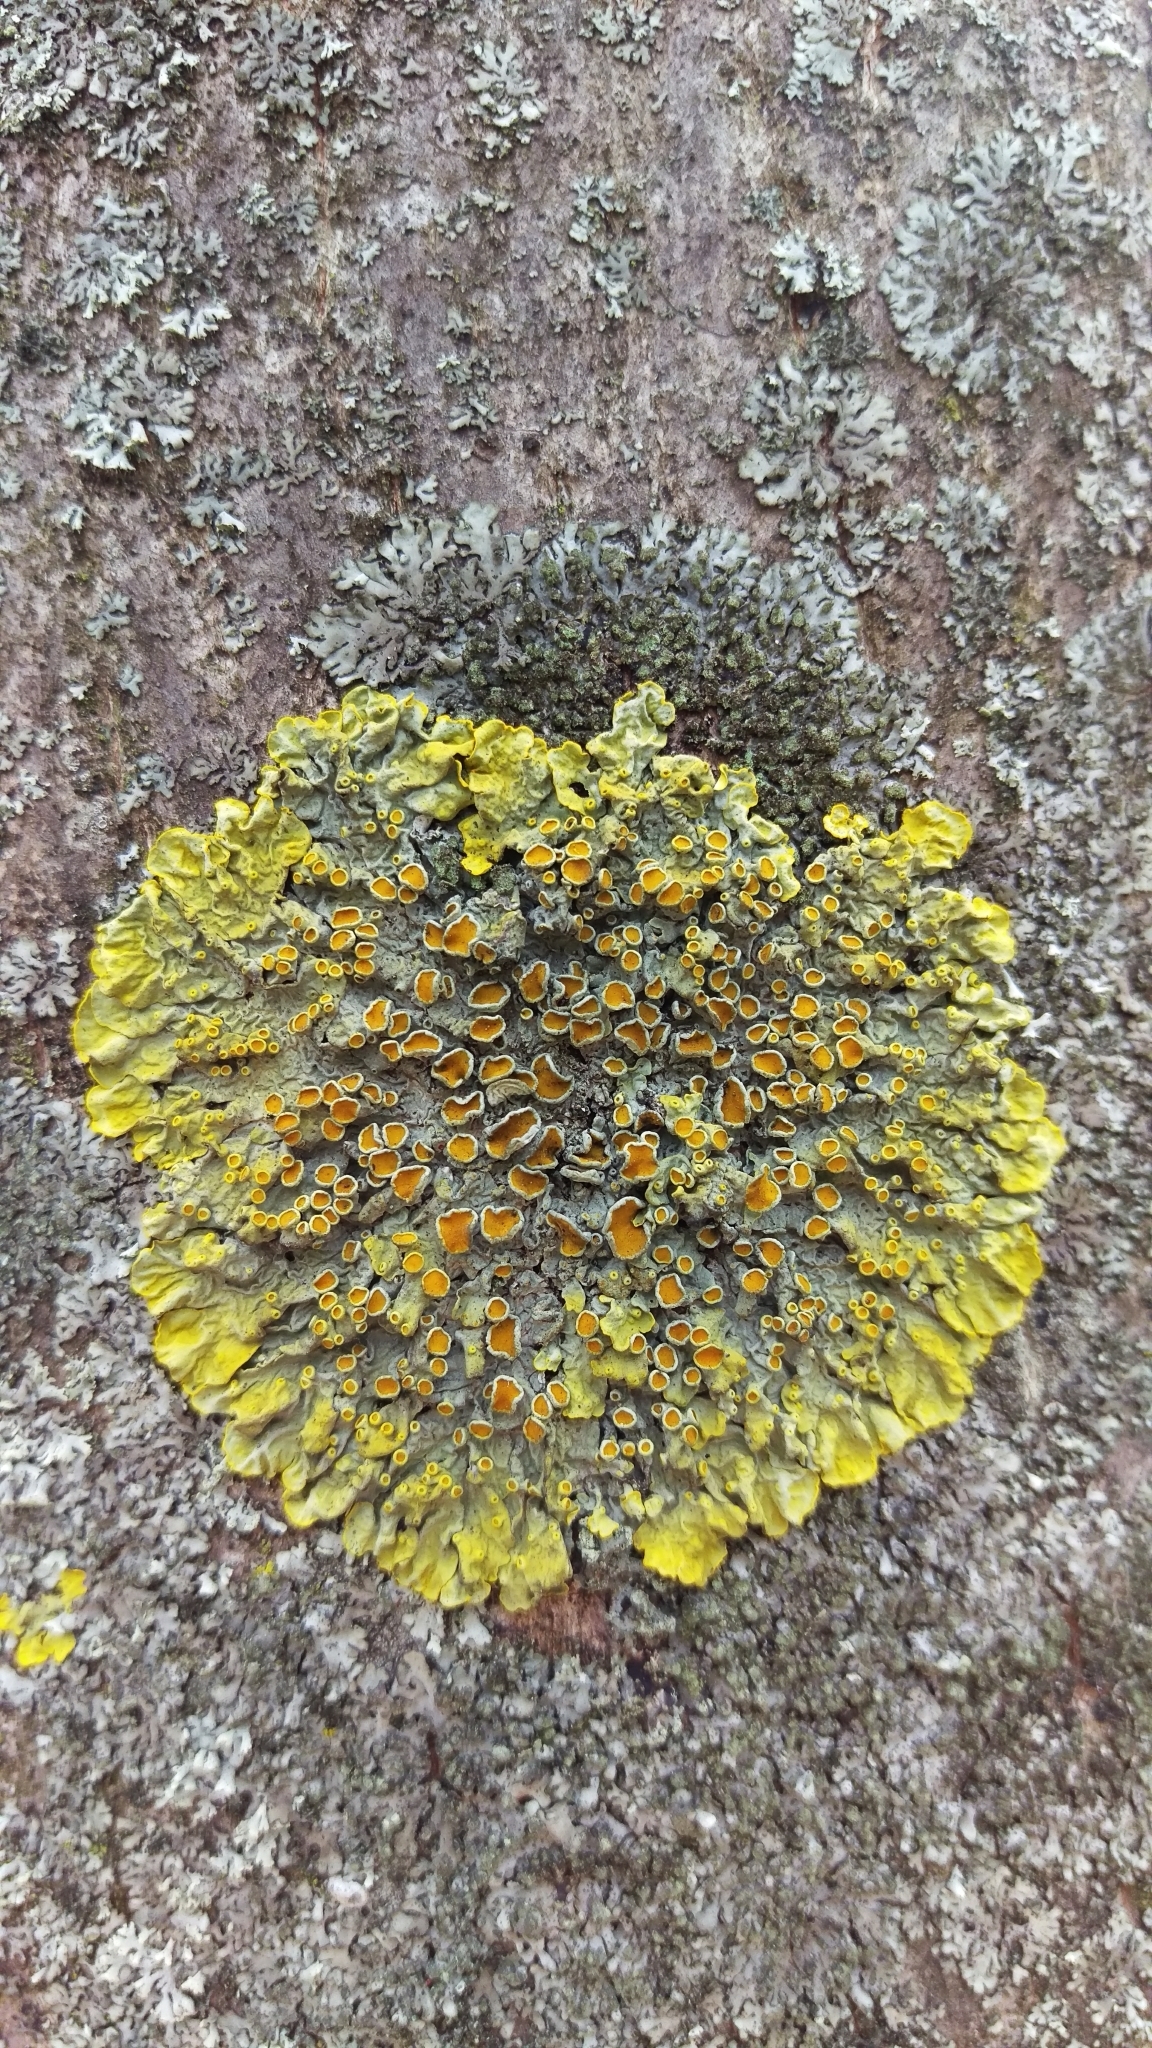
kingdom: Fungi
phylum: Ascomycota
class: Lecanoromycetes
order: Teloschistales
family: Teloschistaceae
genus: Xanthoria
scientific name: Xanthoria parietina
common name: Common orange lichen
